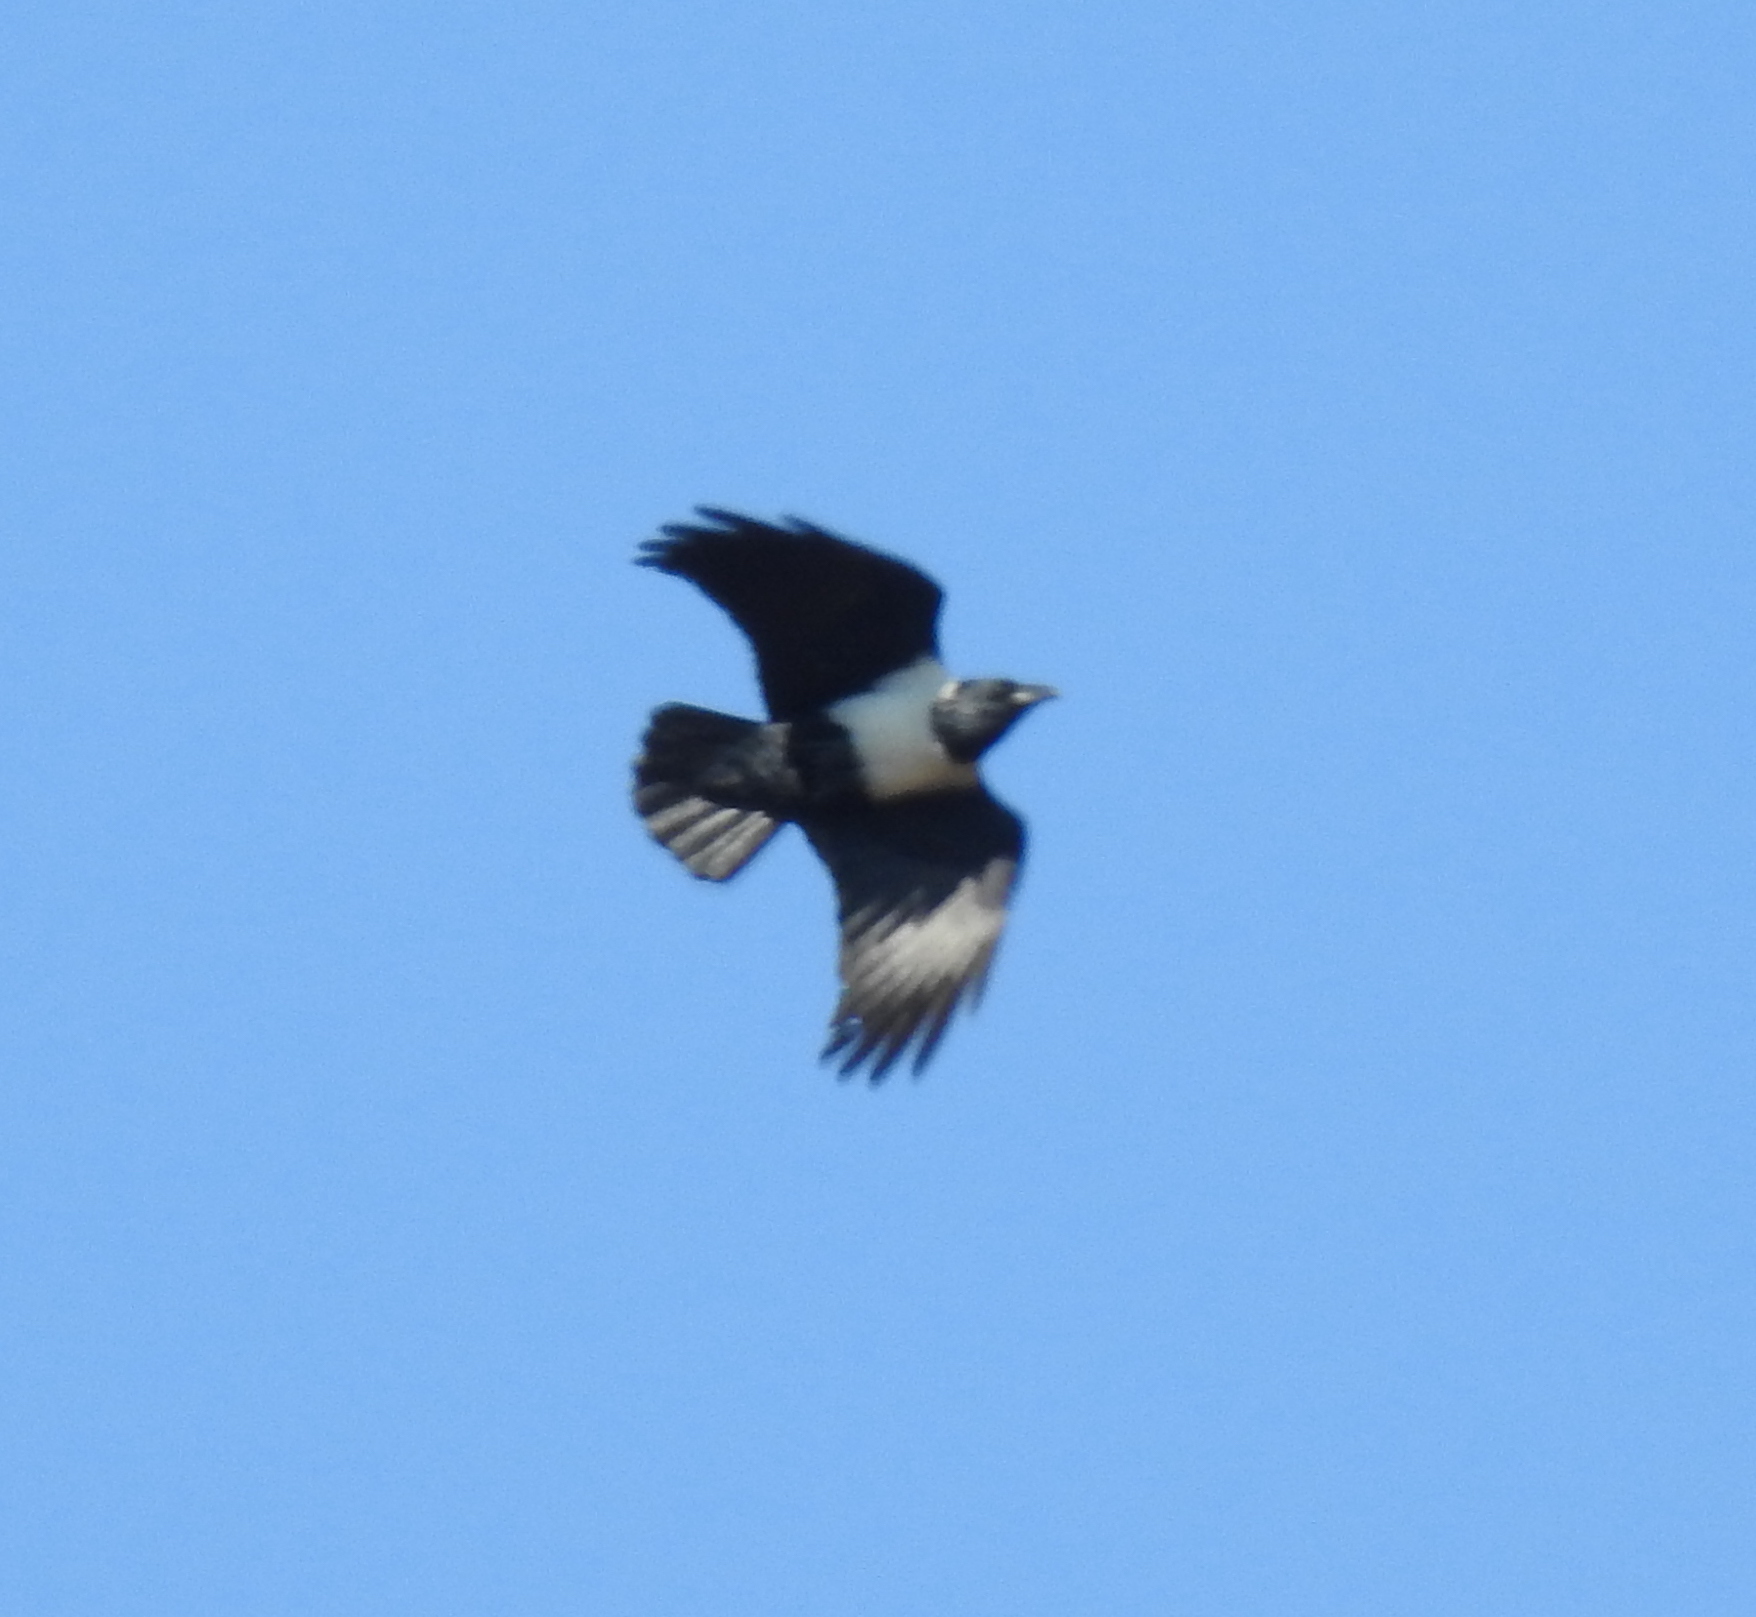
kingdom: Animalia
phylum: Chordata
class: Aves
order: Passeriformes
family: Corvidae
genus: Corvus
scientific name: Corvus albus
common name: Pied crow
